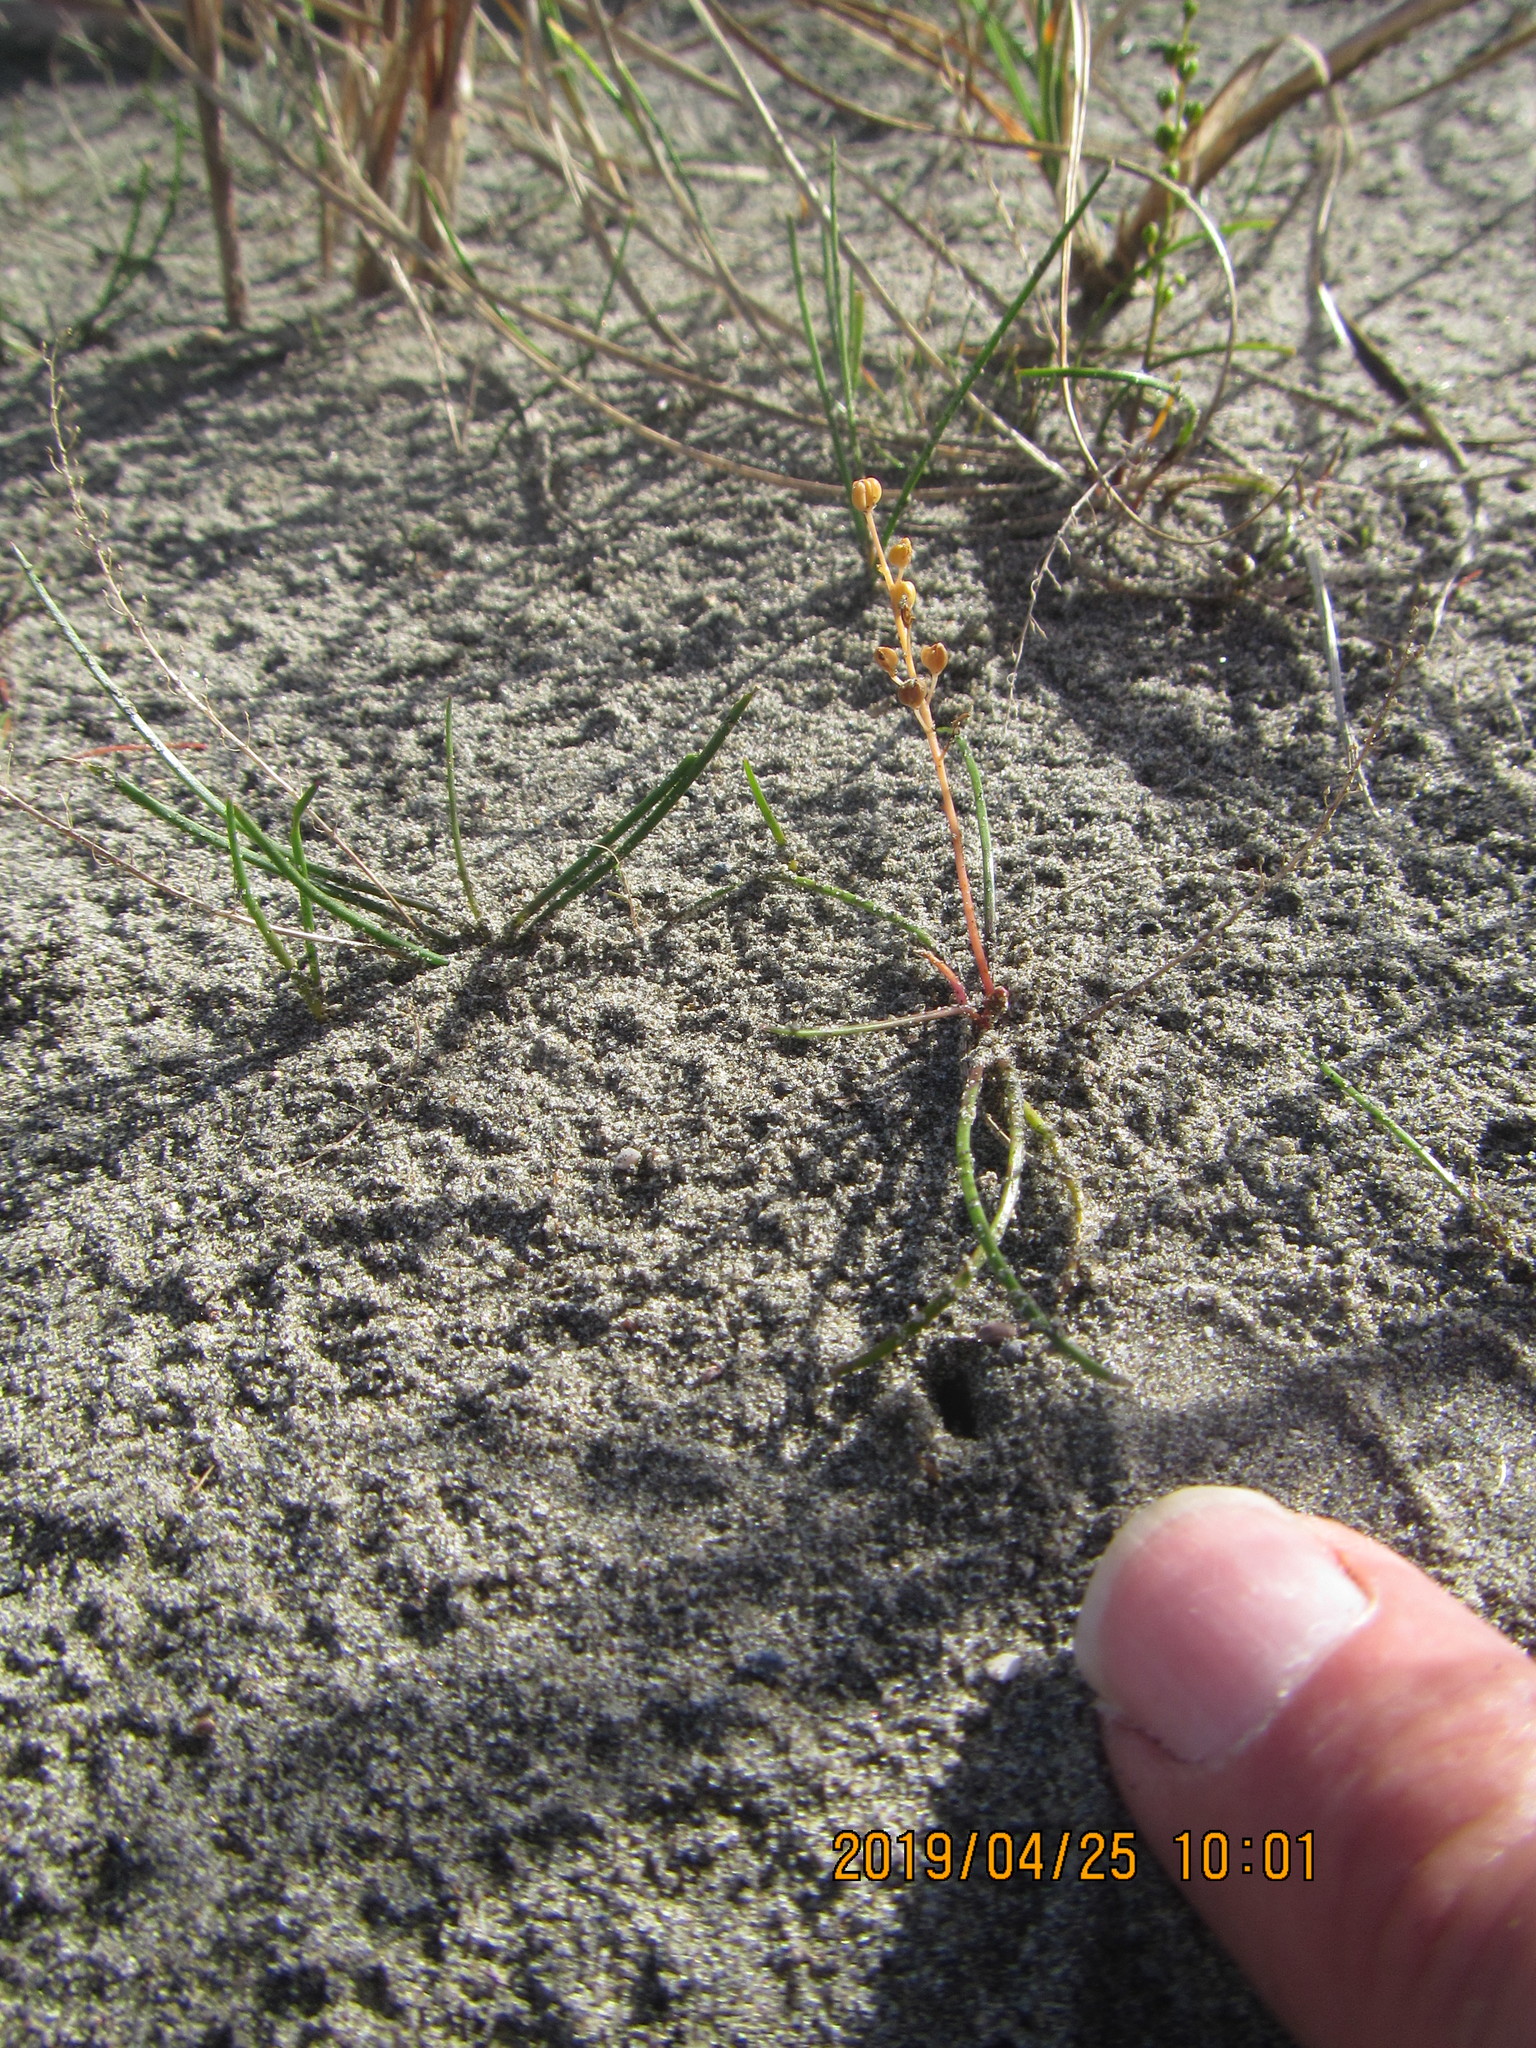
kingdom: Plantae
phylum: Tracheophyta
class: Liliopsida
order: Alismatales
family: Juncaginaceae
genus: Triglochin
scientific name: Triglochin striata
